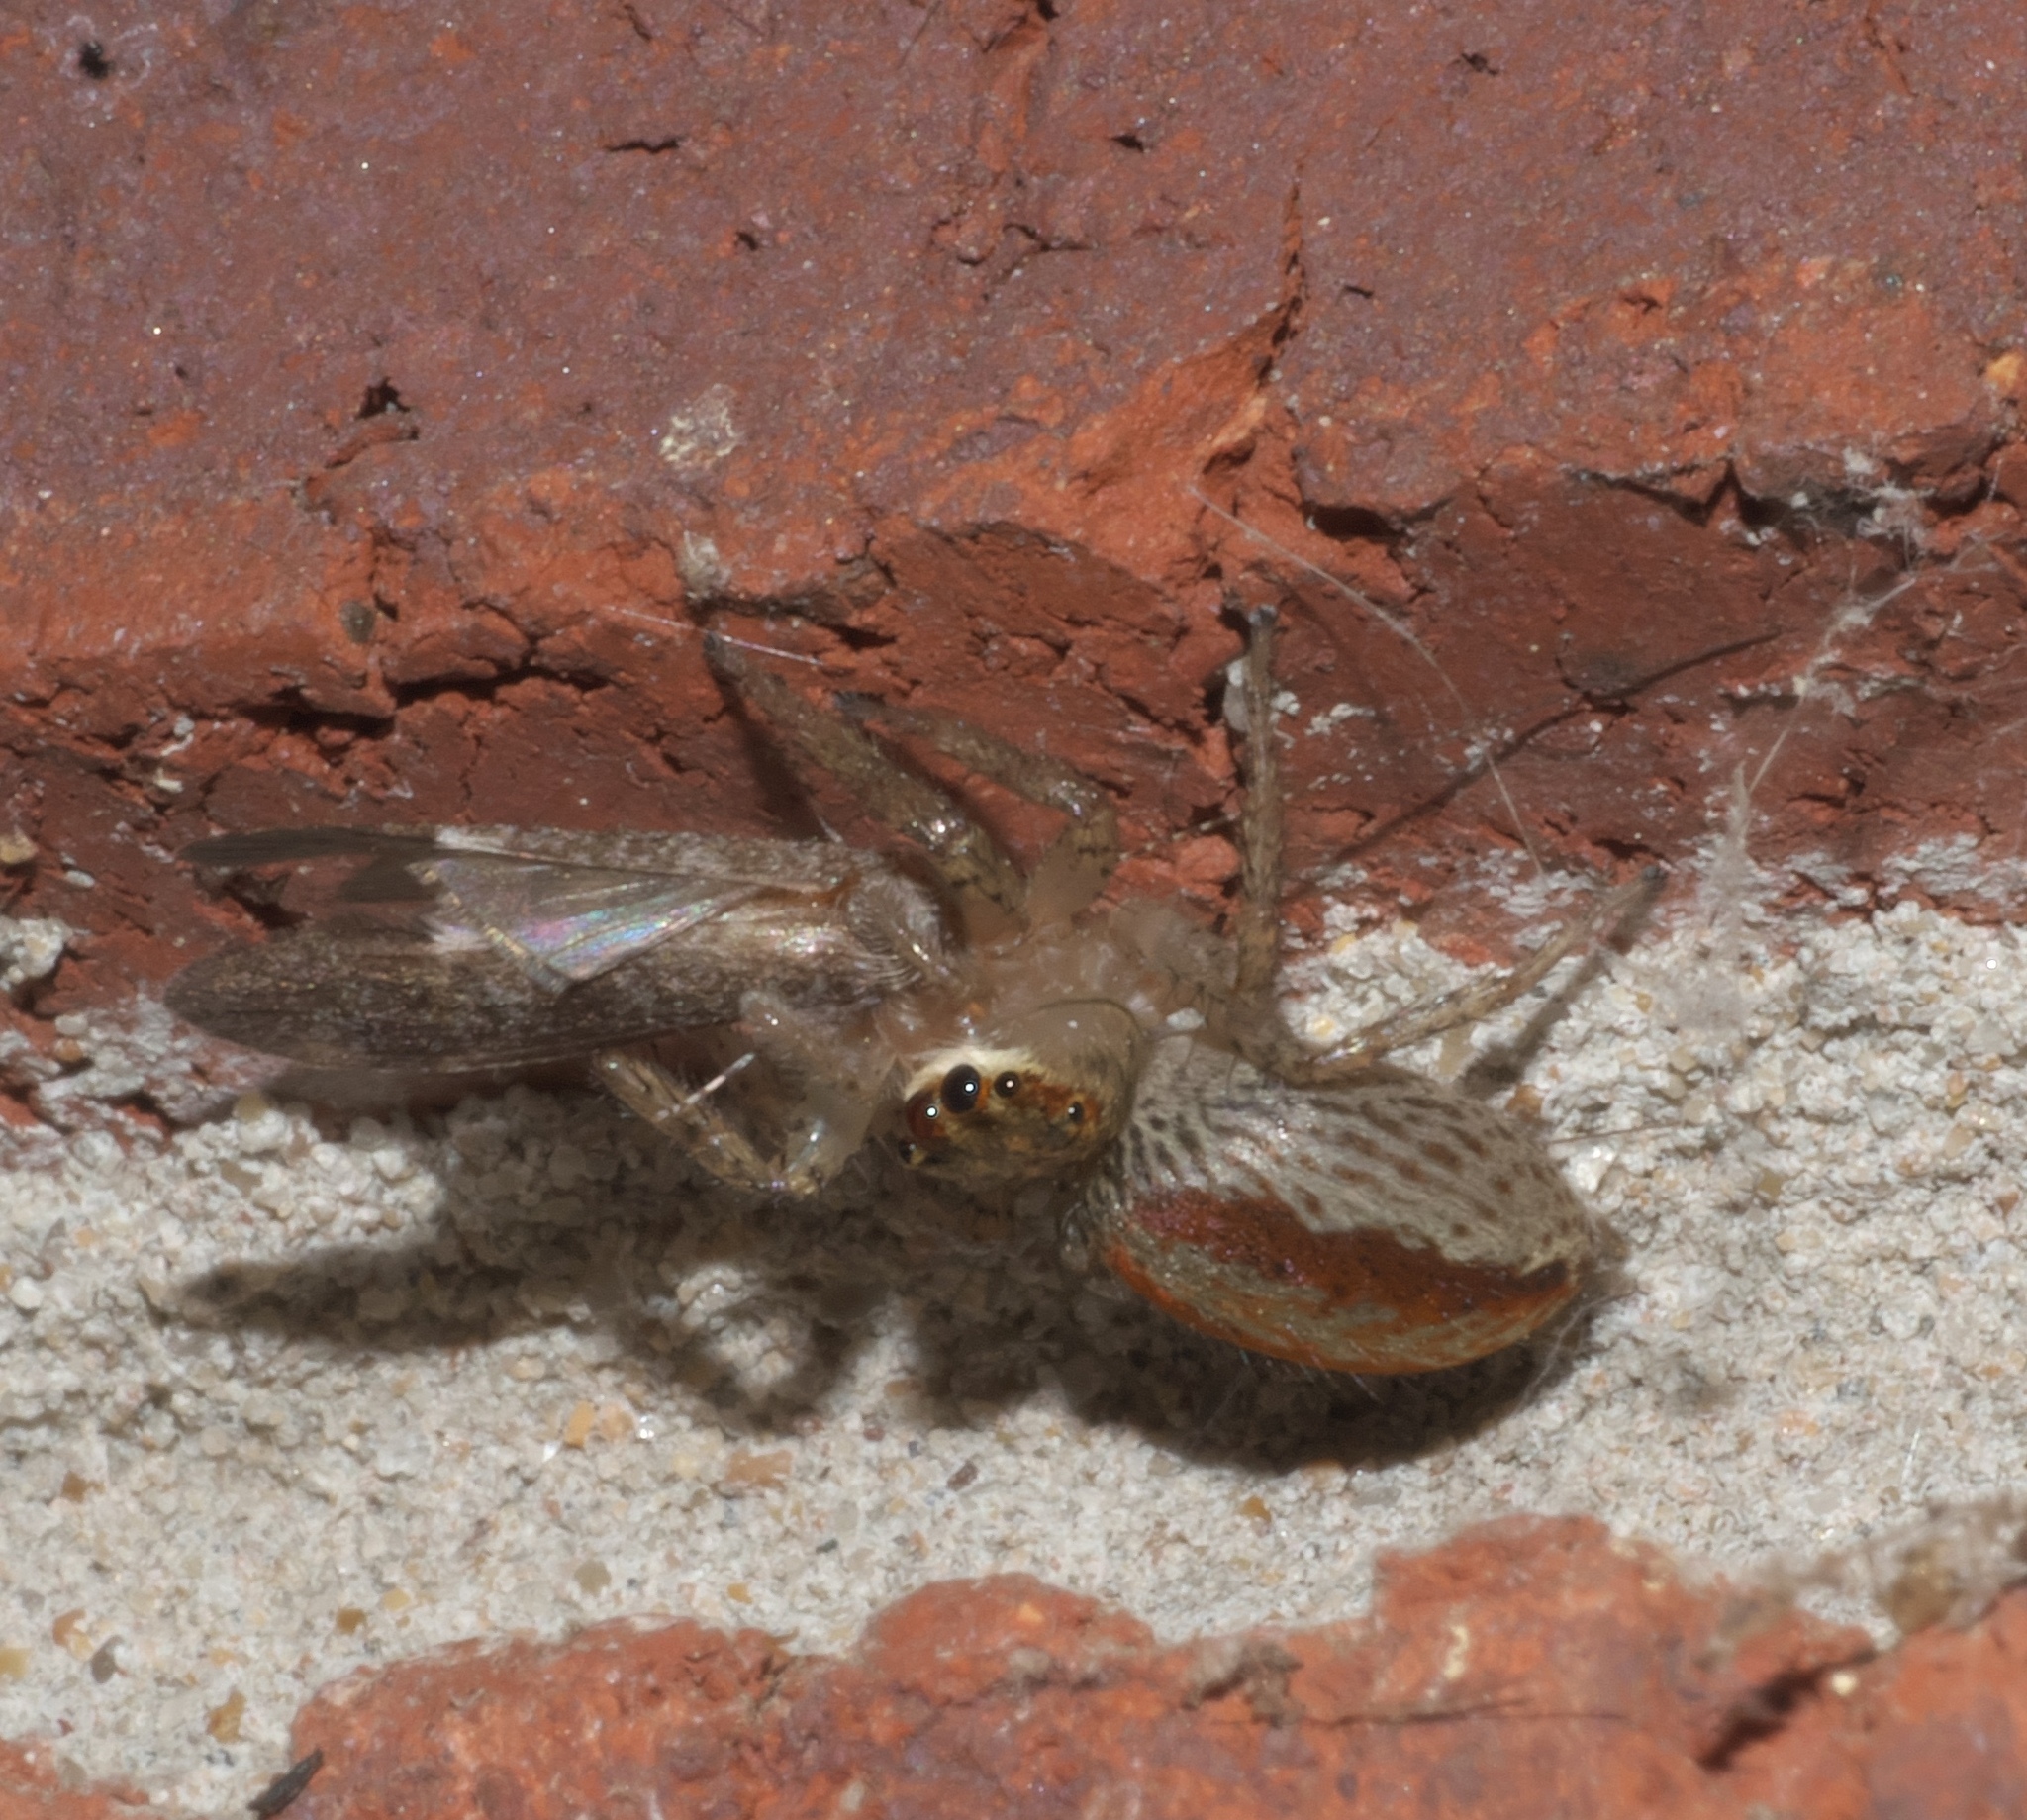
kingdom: Animalia
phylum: Arthropoda
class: Arachnida
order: Araneae
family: Salticidae
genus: Maevia
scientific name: Maevia inclemens
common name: Dimorphic jumper
